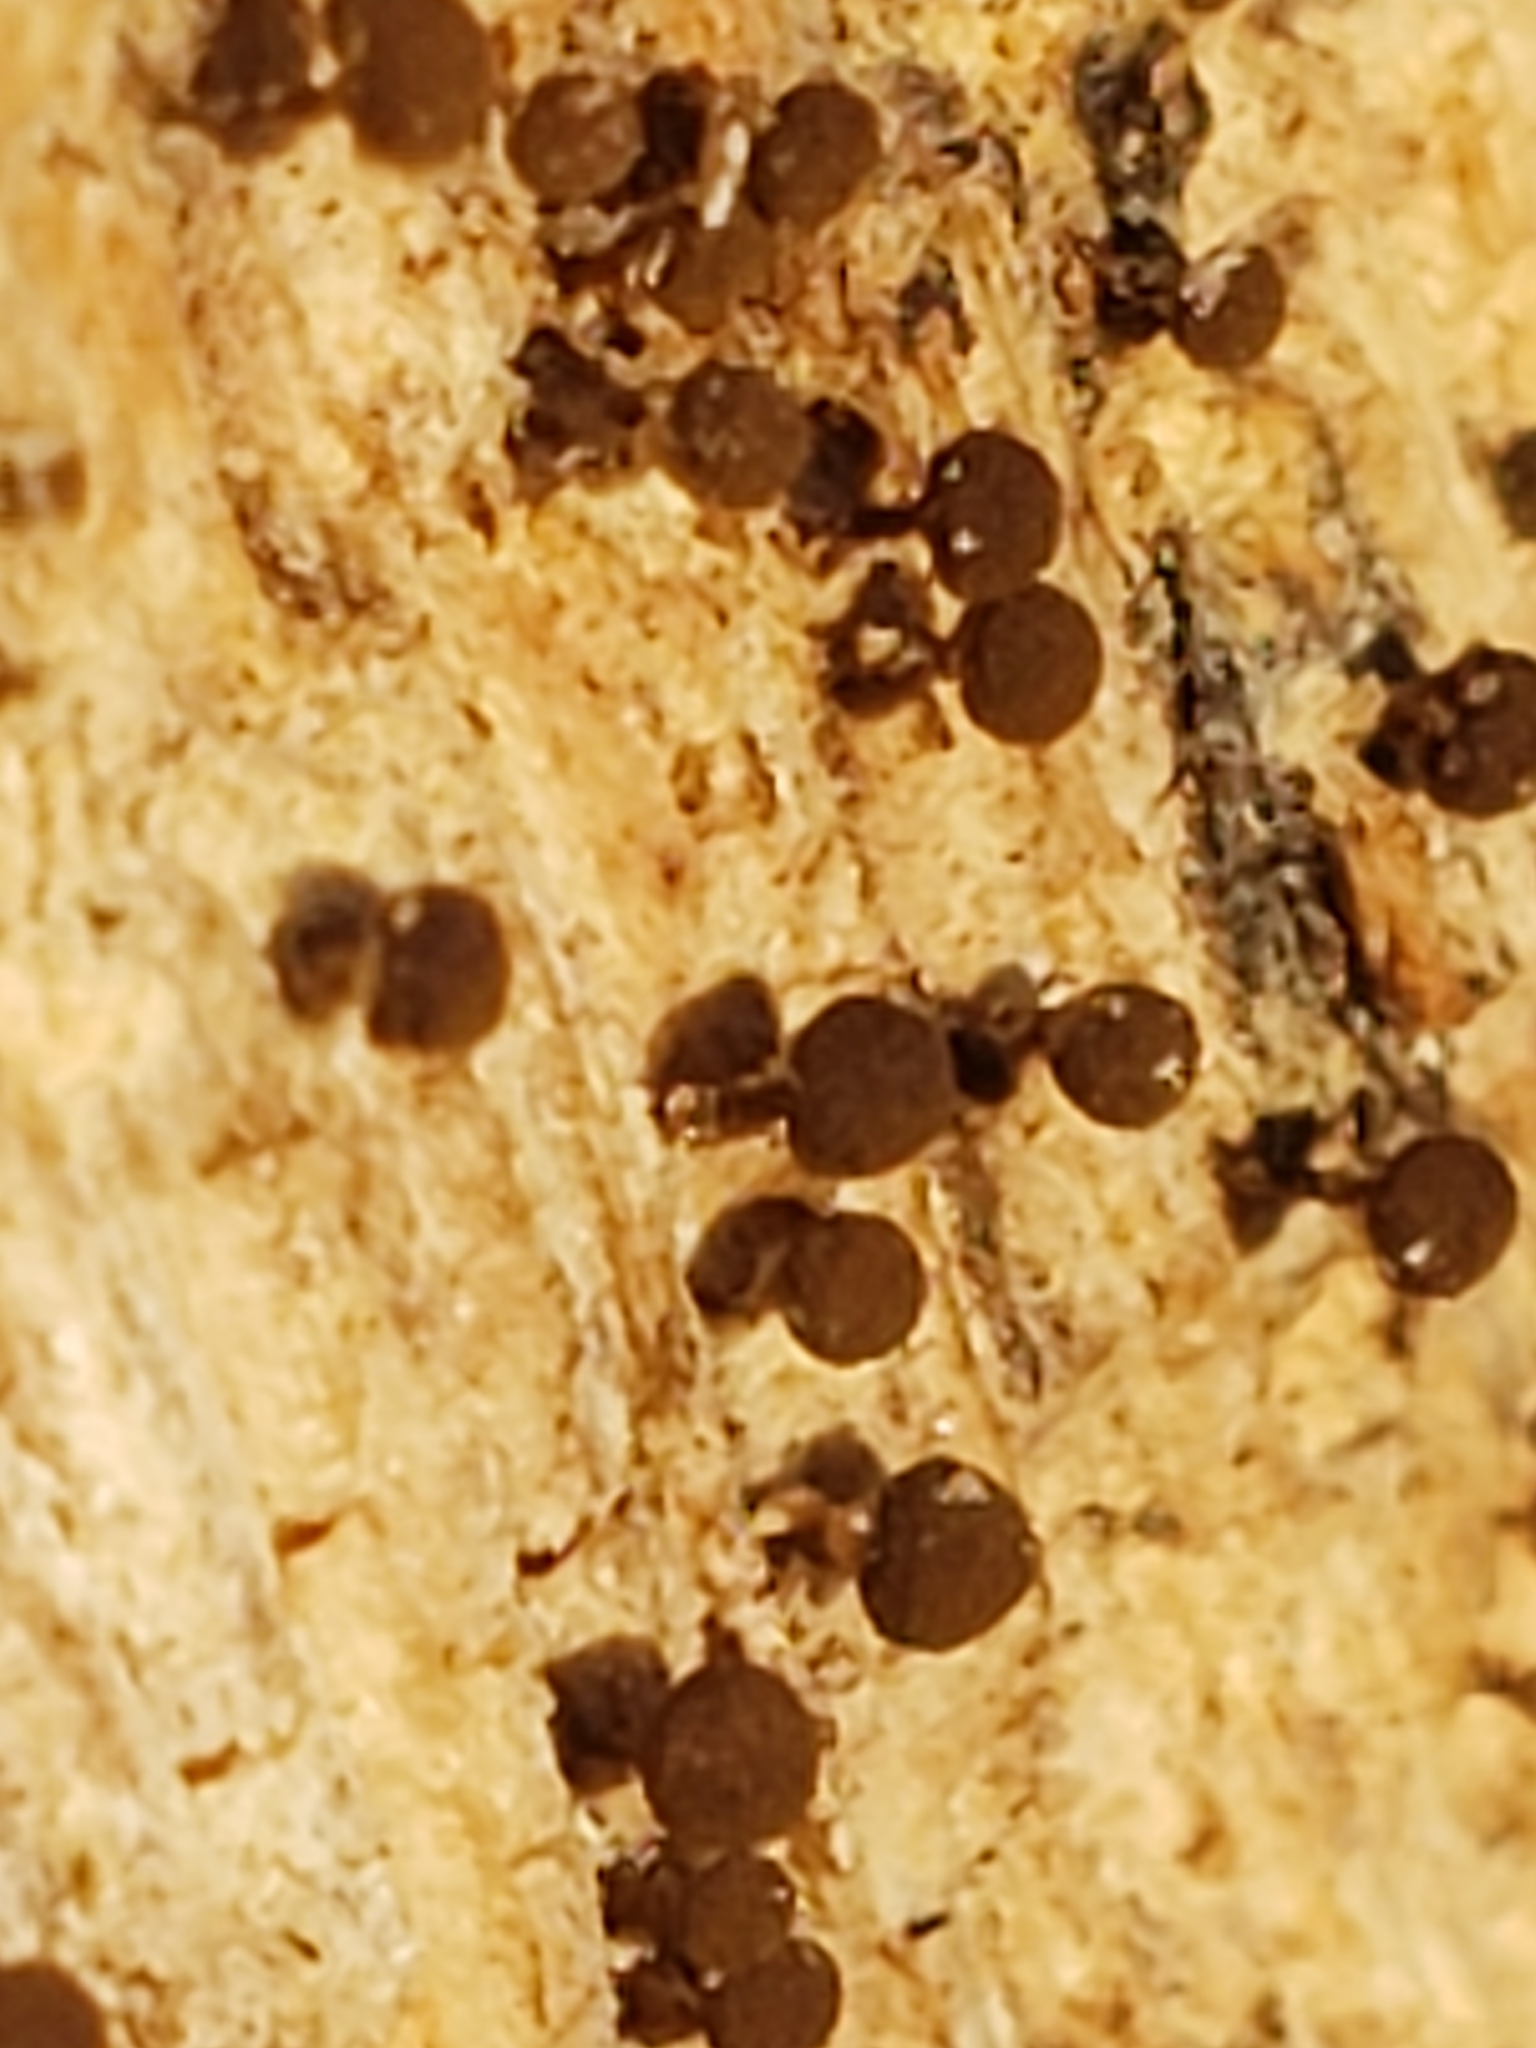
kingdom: Fungi
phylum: Basidiomycota
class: Atractiellomycetes
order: Atractiellales
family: Phleogenaceae
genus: Phleogena
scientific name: Phleogena faginea
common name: Fenugreek stalkball
